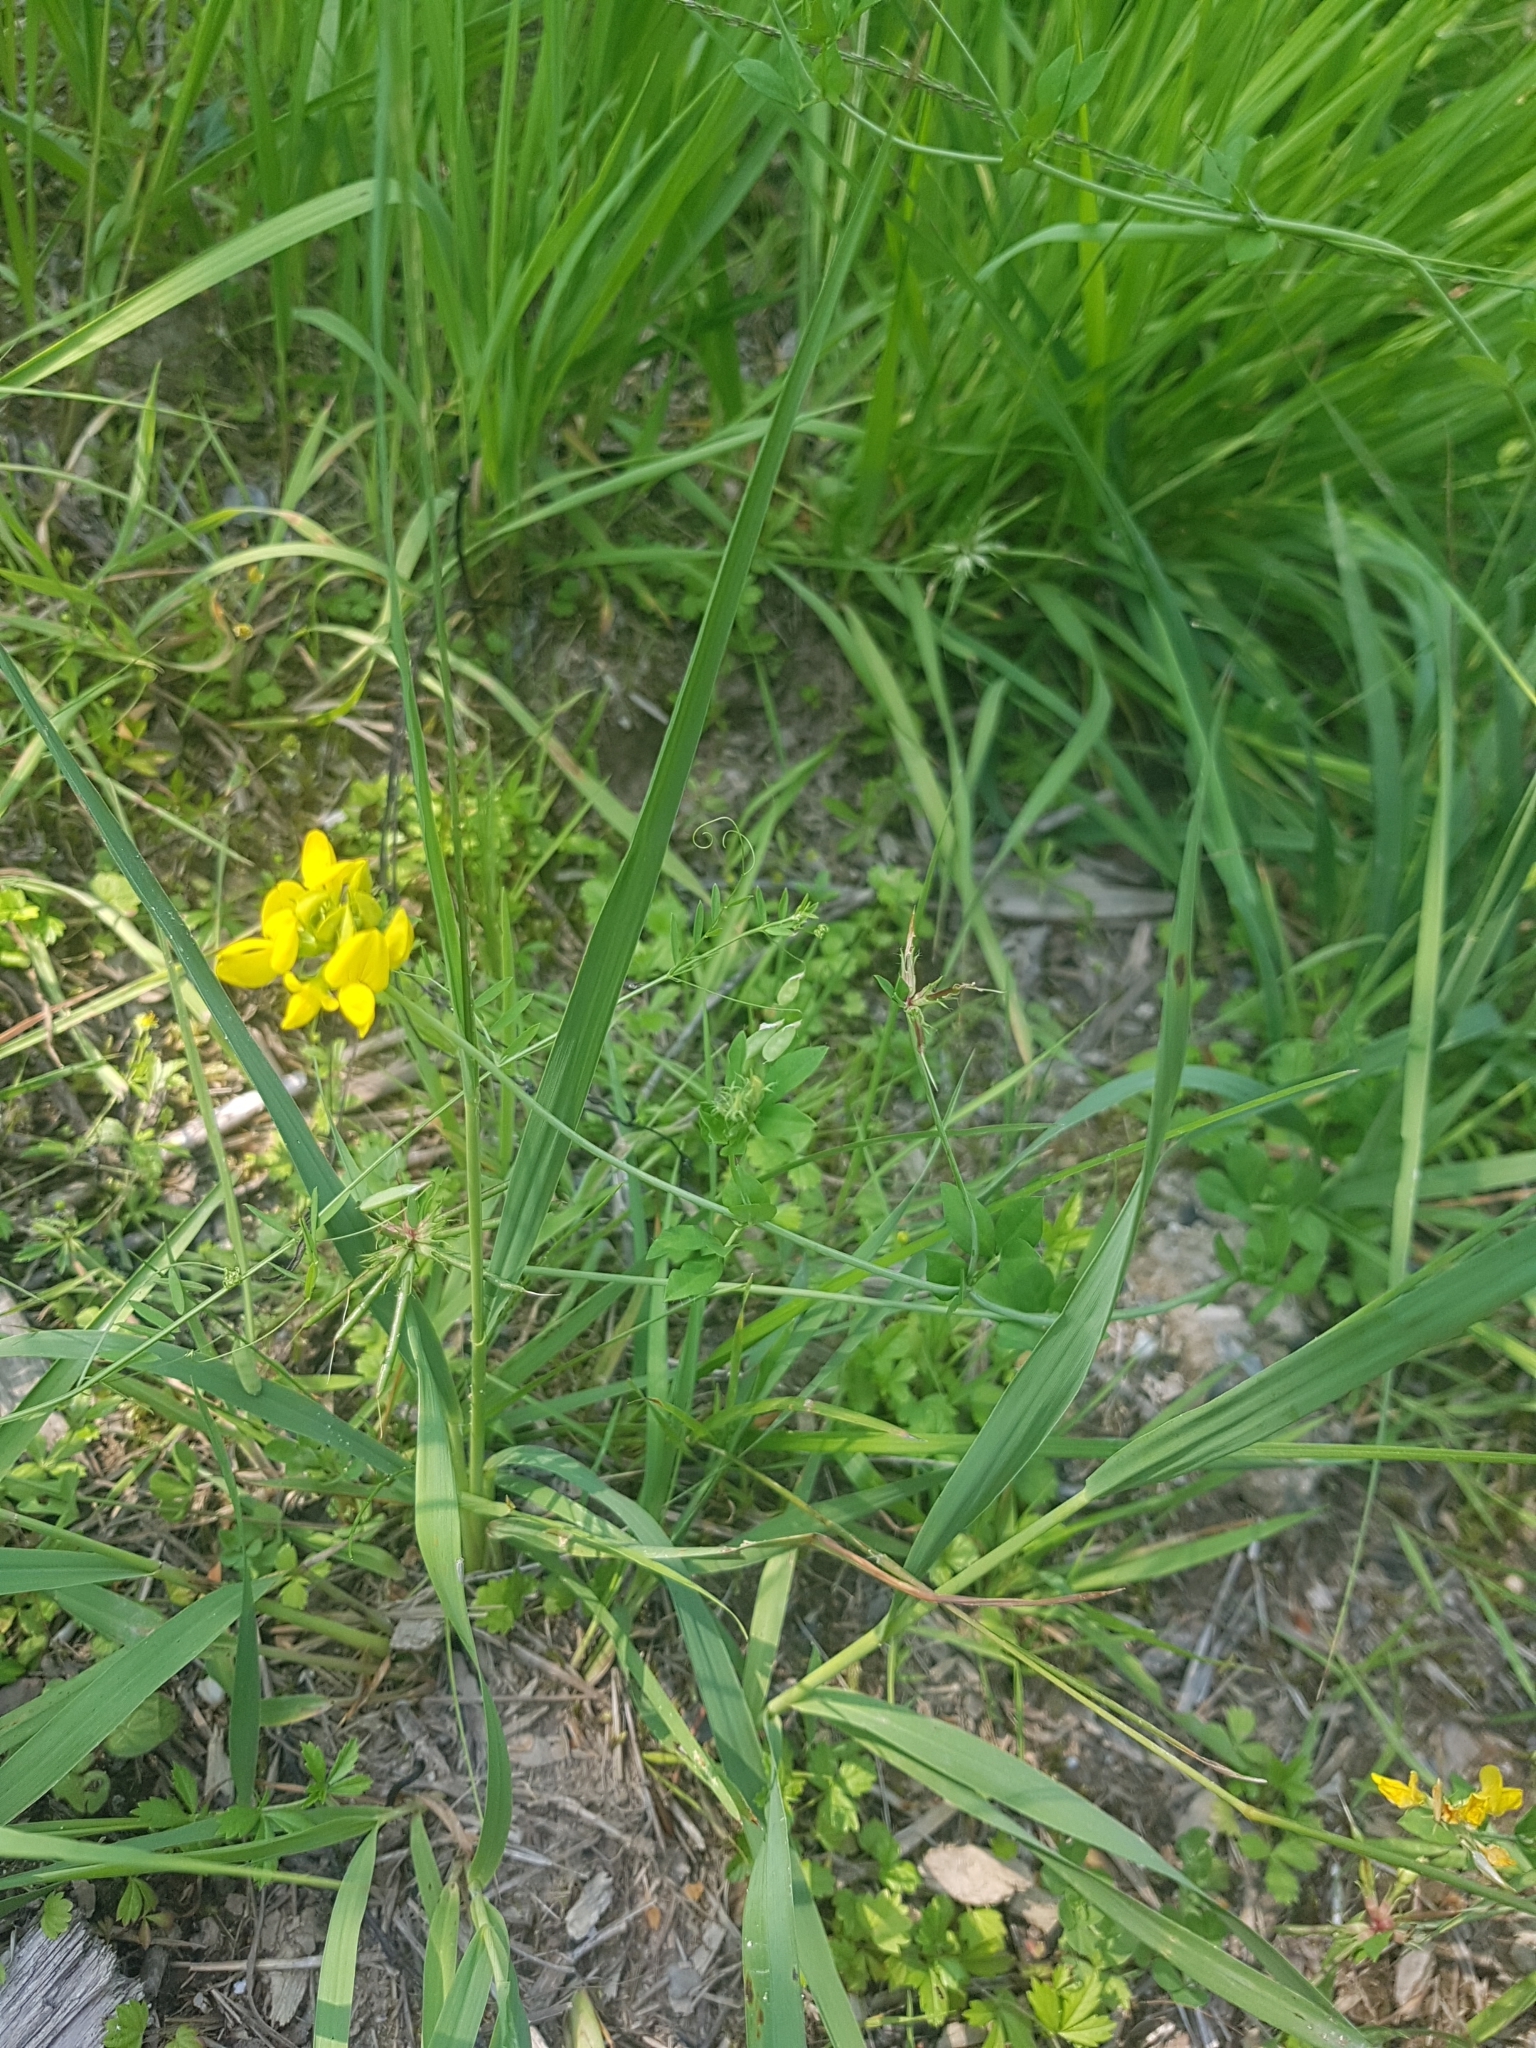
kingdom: Plantae
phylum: Tracheophyta
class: Magnoliopsida
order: Fabales
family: Fabaceae
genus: Lotus
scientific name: Lotus pedunculatus
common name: Greater birdsfoot-trefoil
